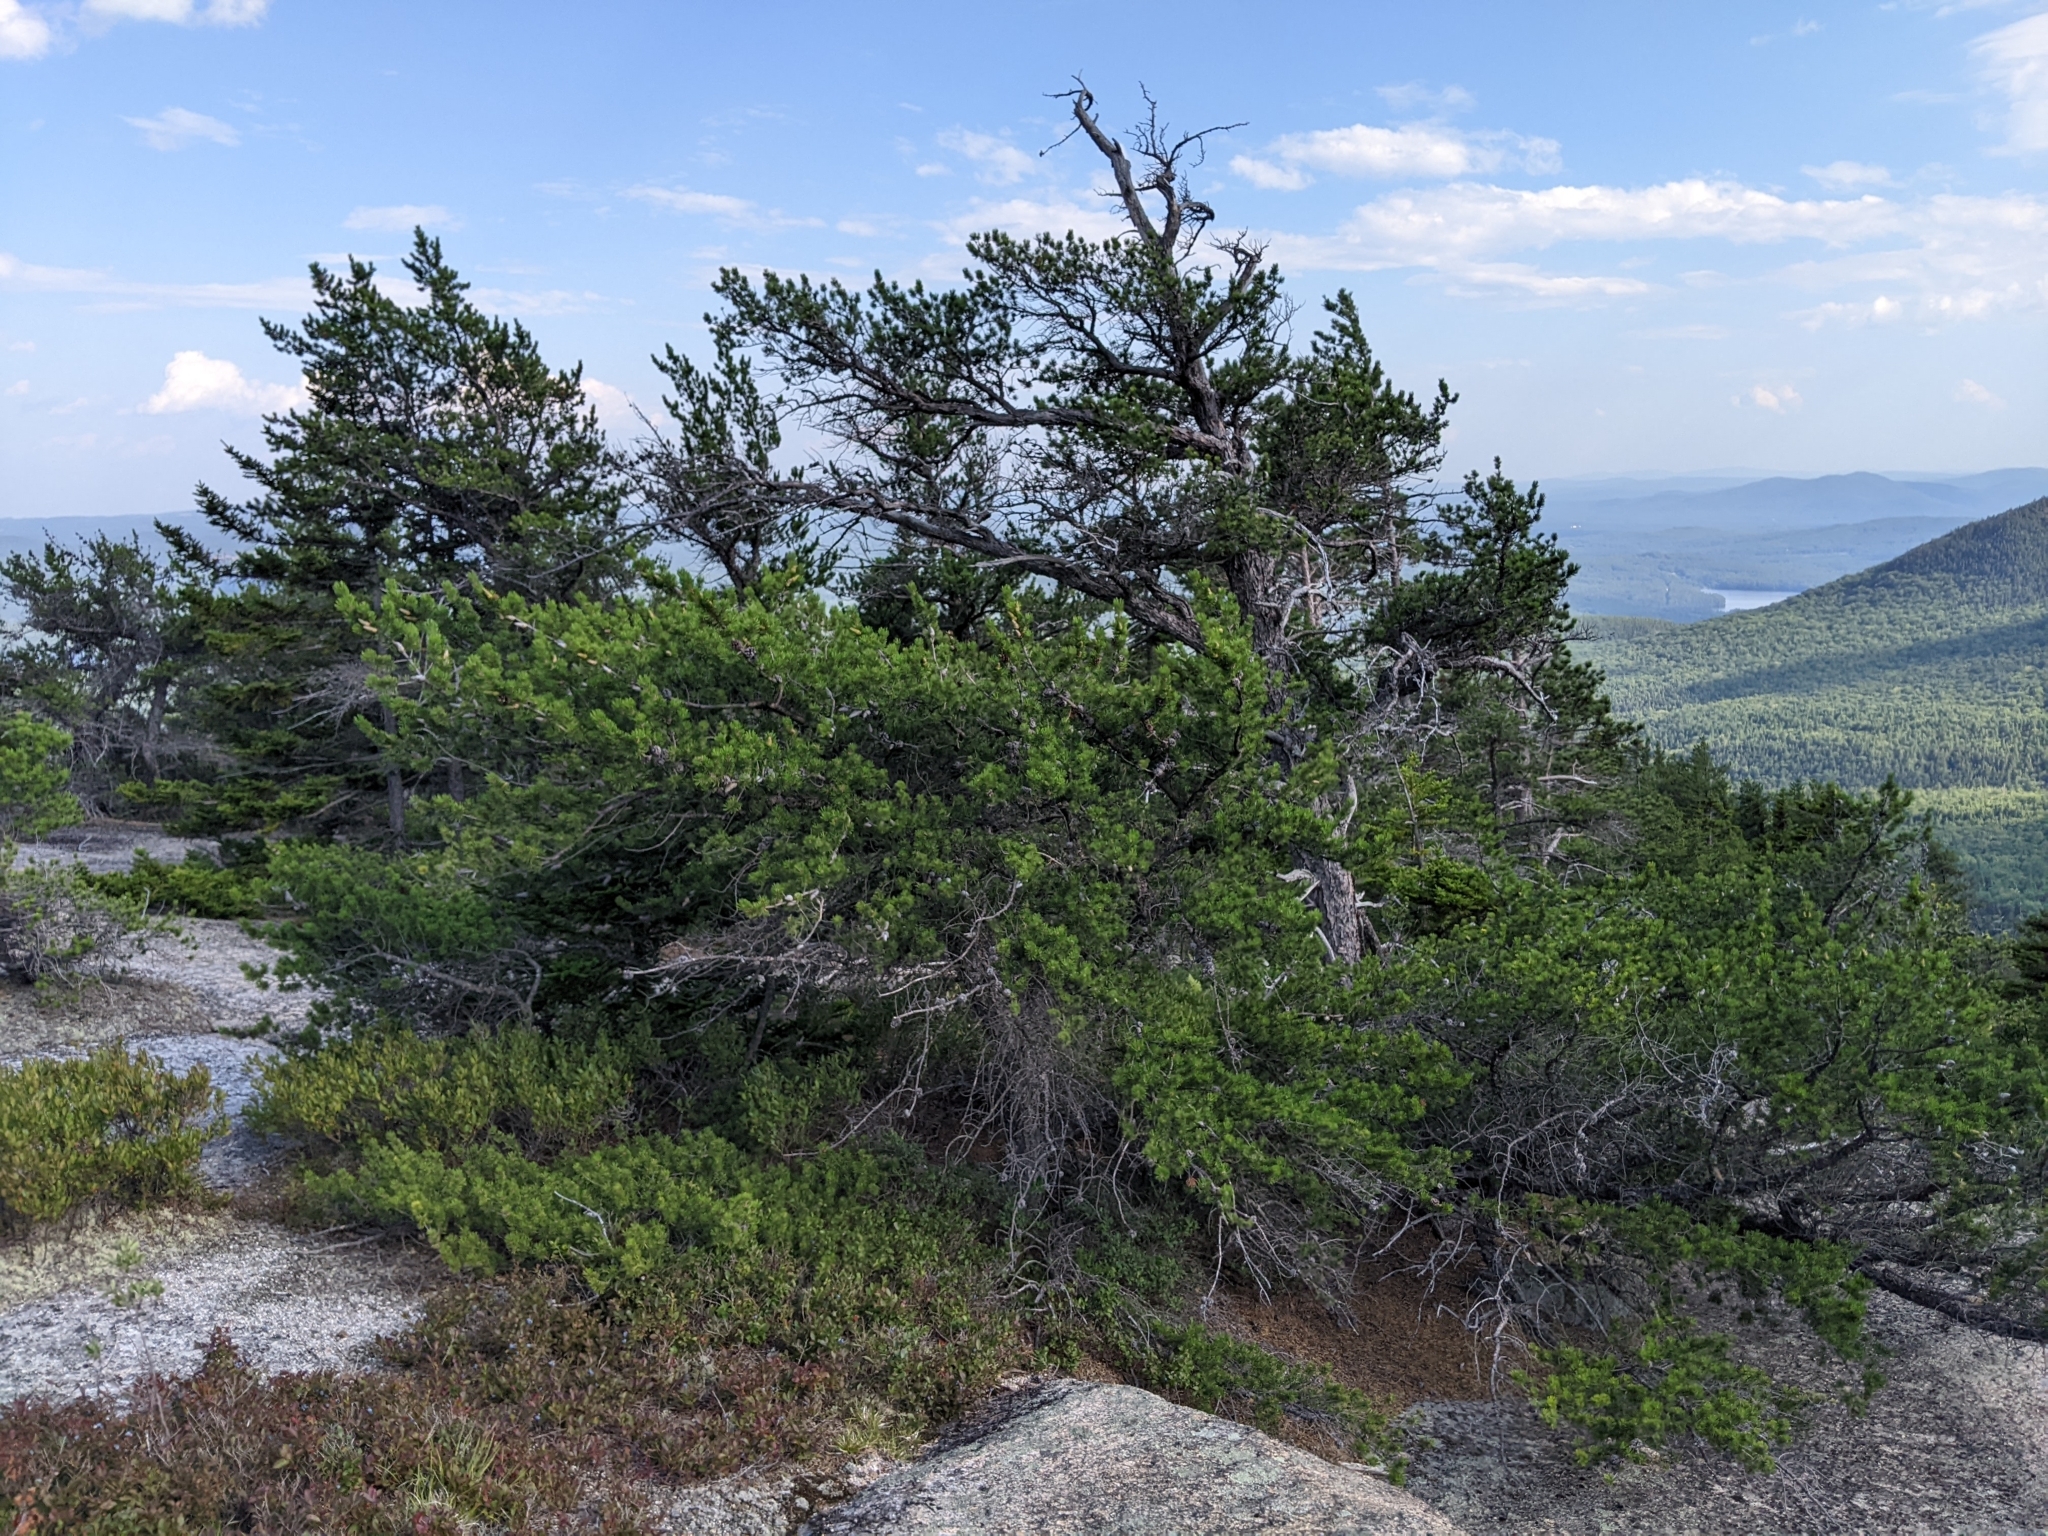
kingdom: Plantae
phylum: Tracheophyta
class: Pinopsida
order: Pinales
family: Pinaceae
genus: Pinus
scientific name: Pinus banksiana
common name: Jack pine
